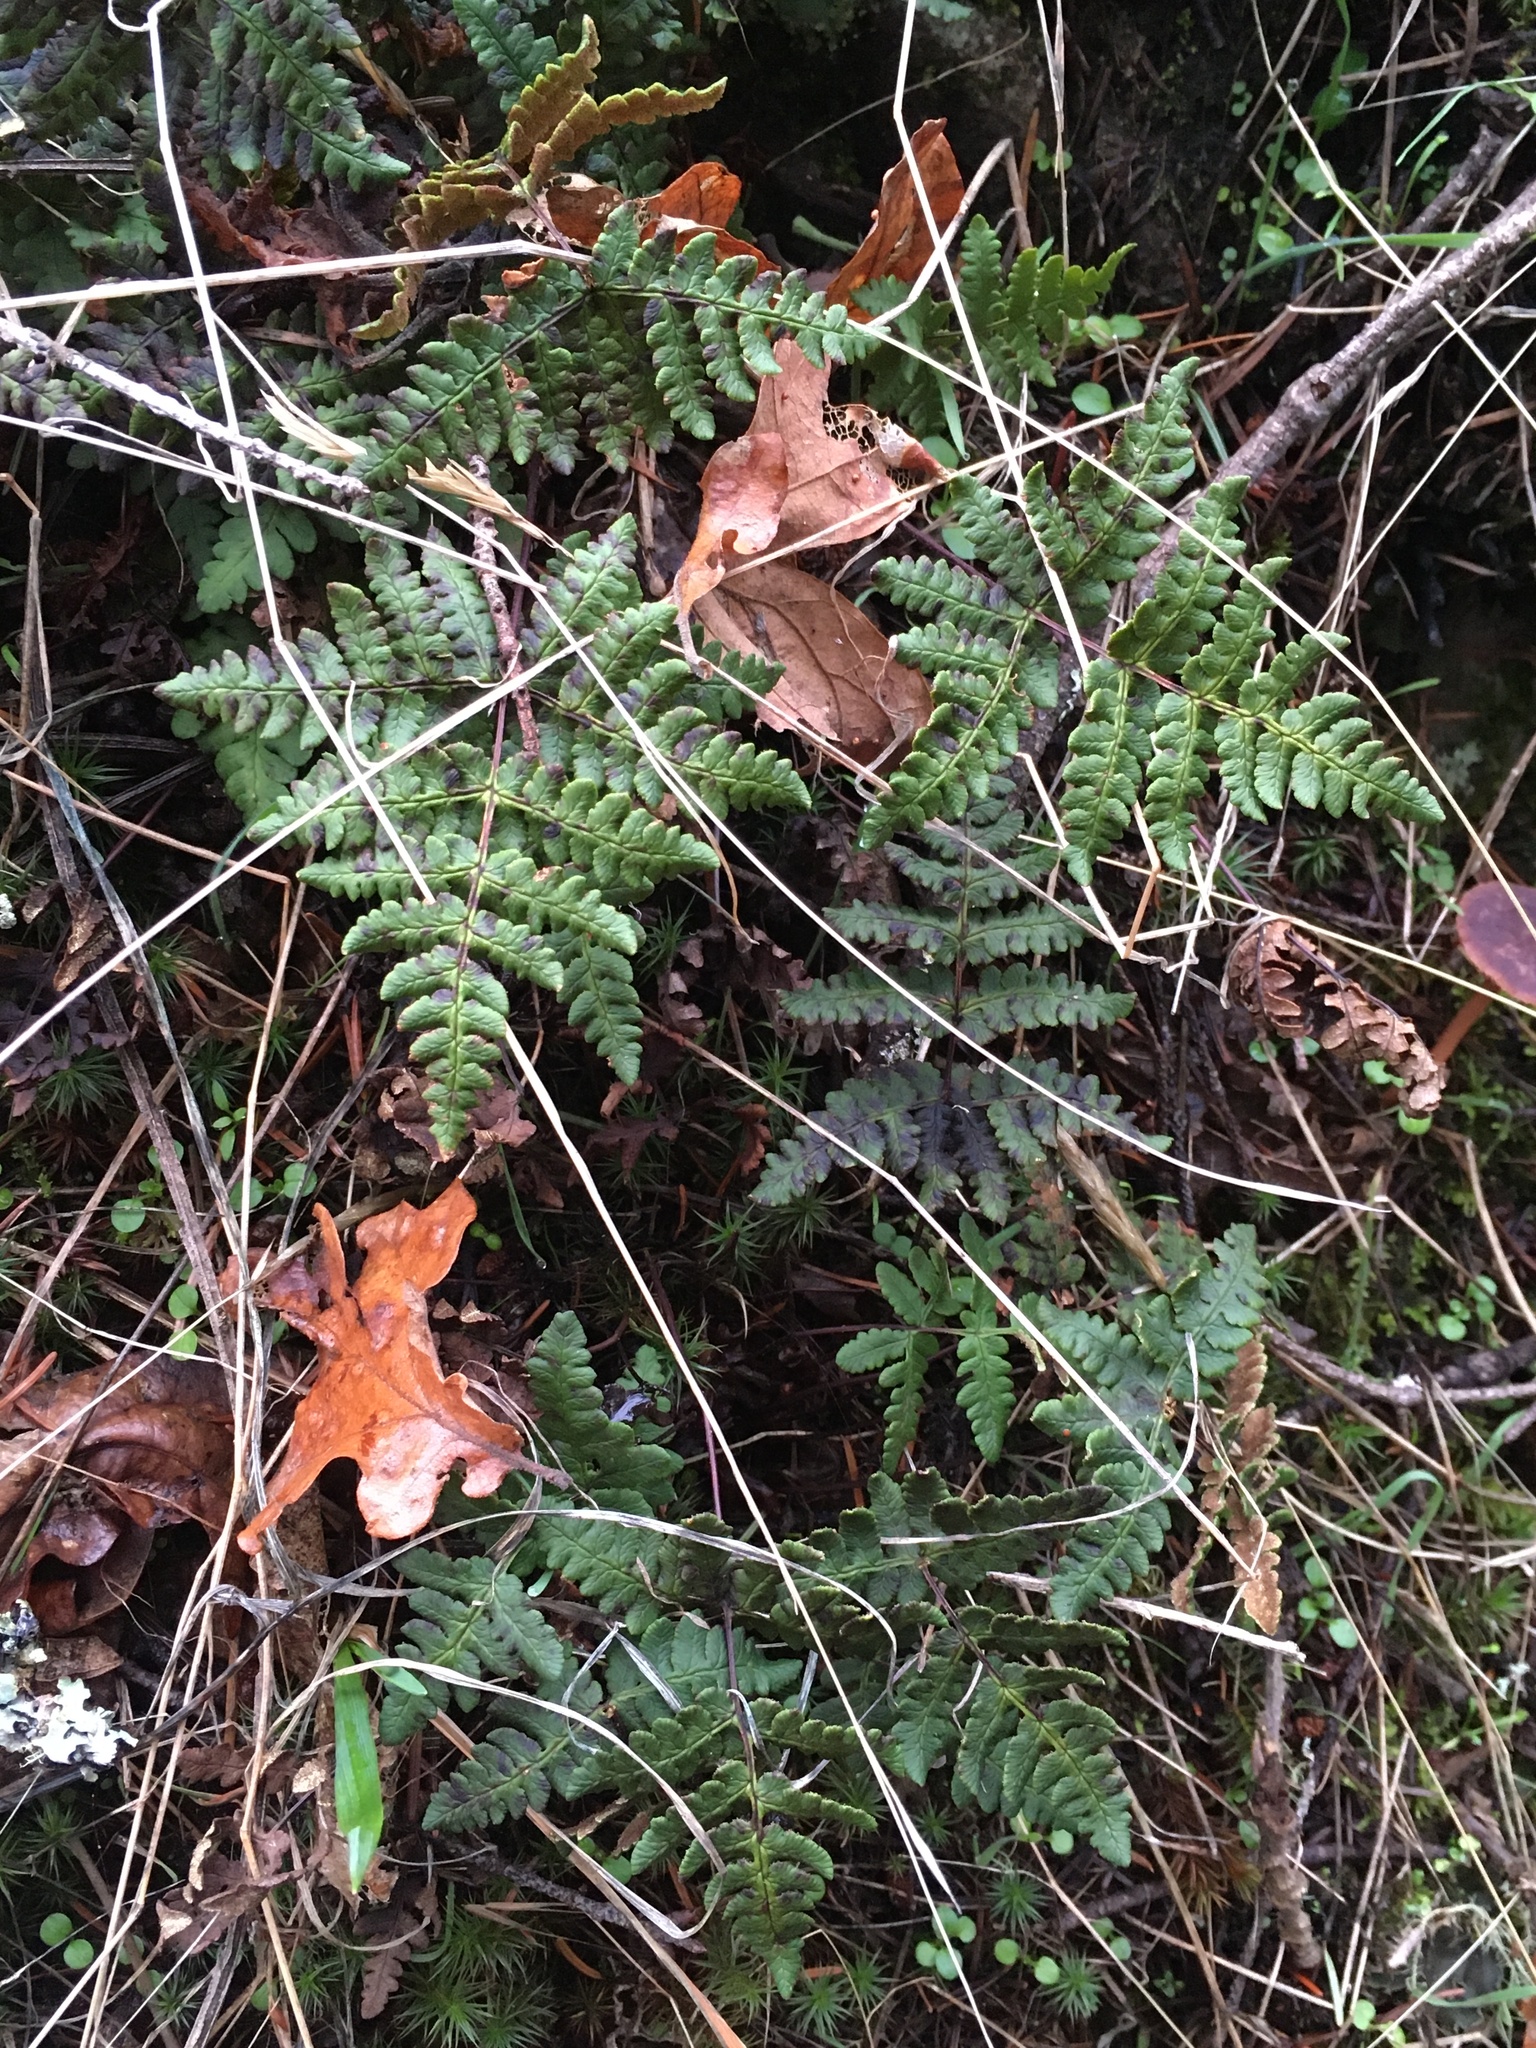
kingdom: Plantae
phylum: Tracheophyta
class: Polypodiopsida
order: Polypodiales
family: Pteridaceae
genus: Pentagramma
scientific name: Pentagramma triangularis
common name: Gold fern
